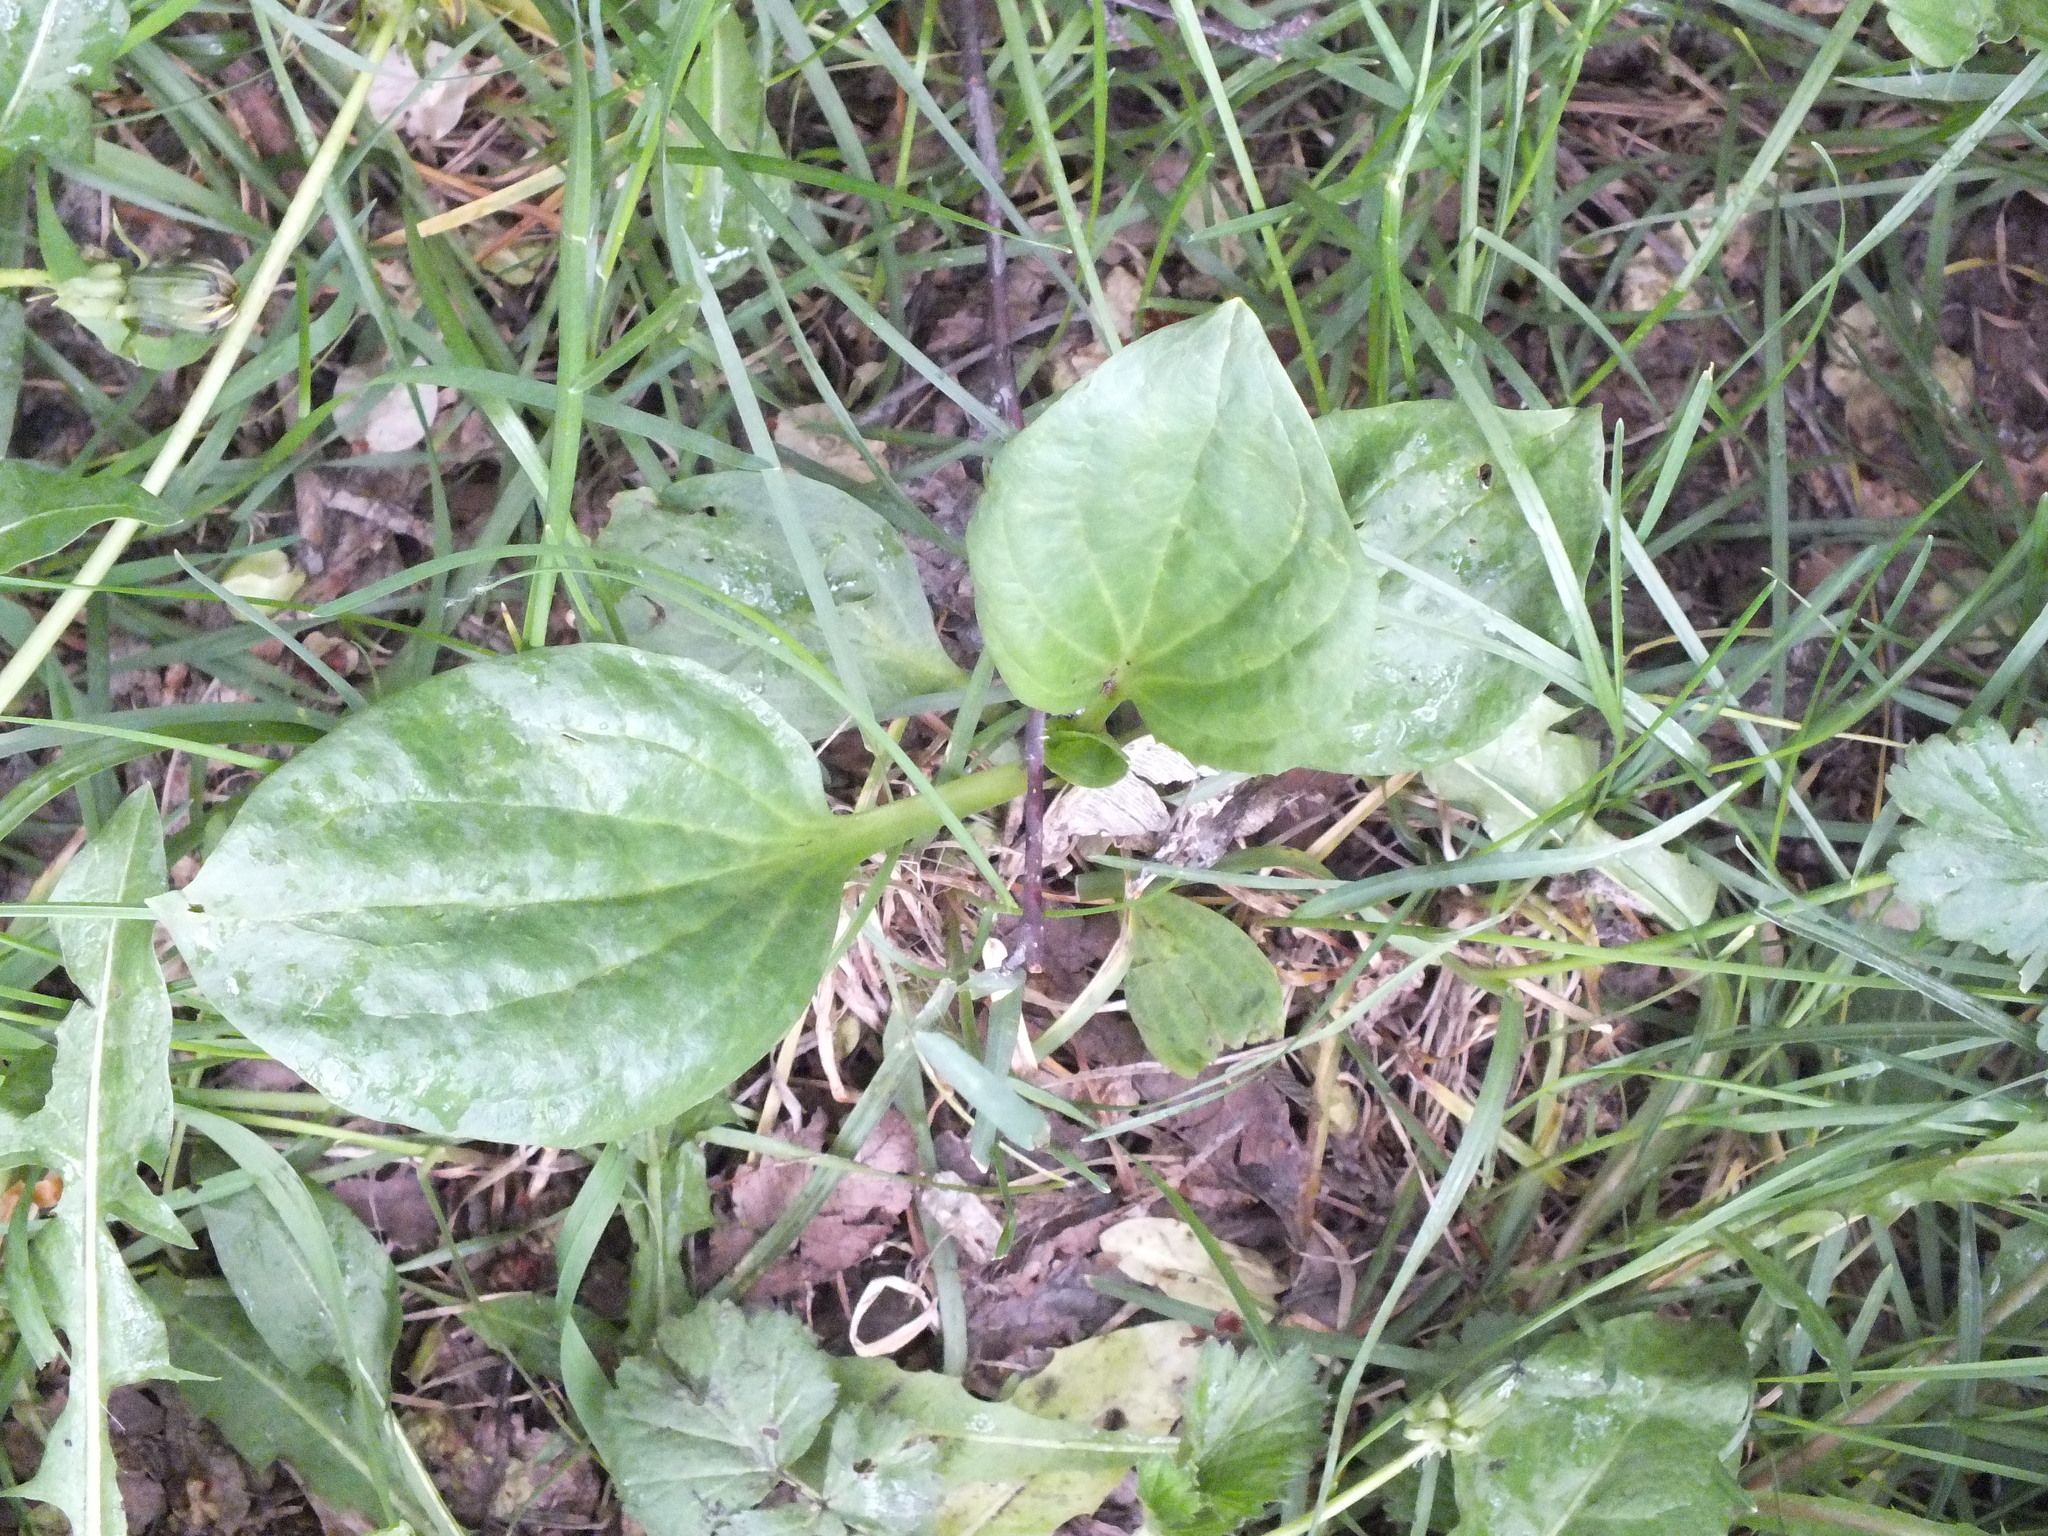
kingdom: Plantae
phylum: Tracheophyta
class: Magnoliopsida
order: Lamiales
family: Plantaginaceae
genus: Plantago
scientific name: Plantago major
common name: Common plantain
